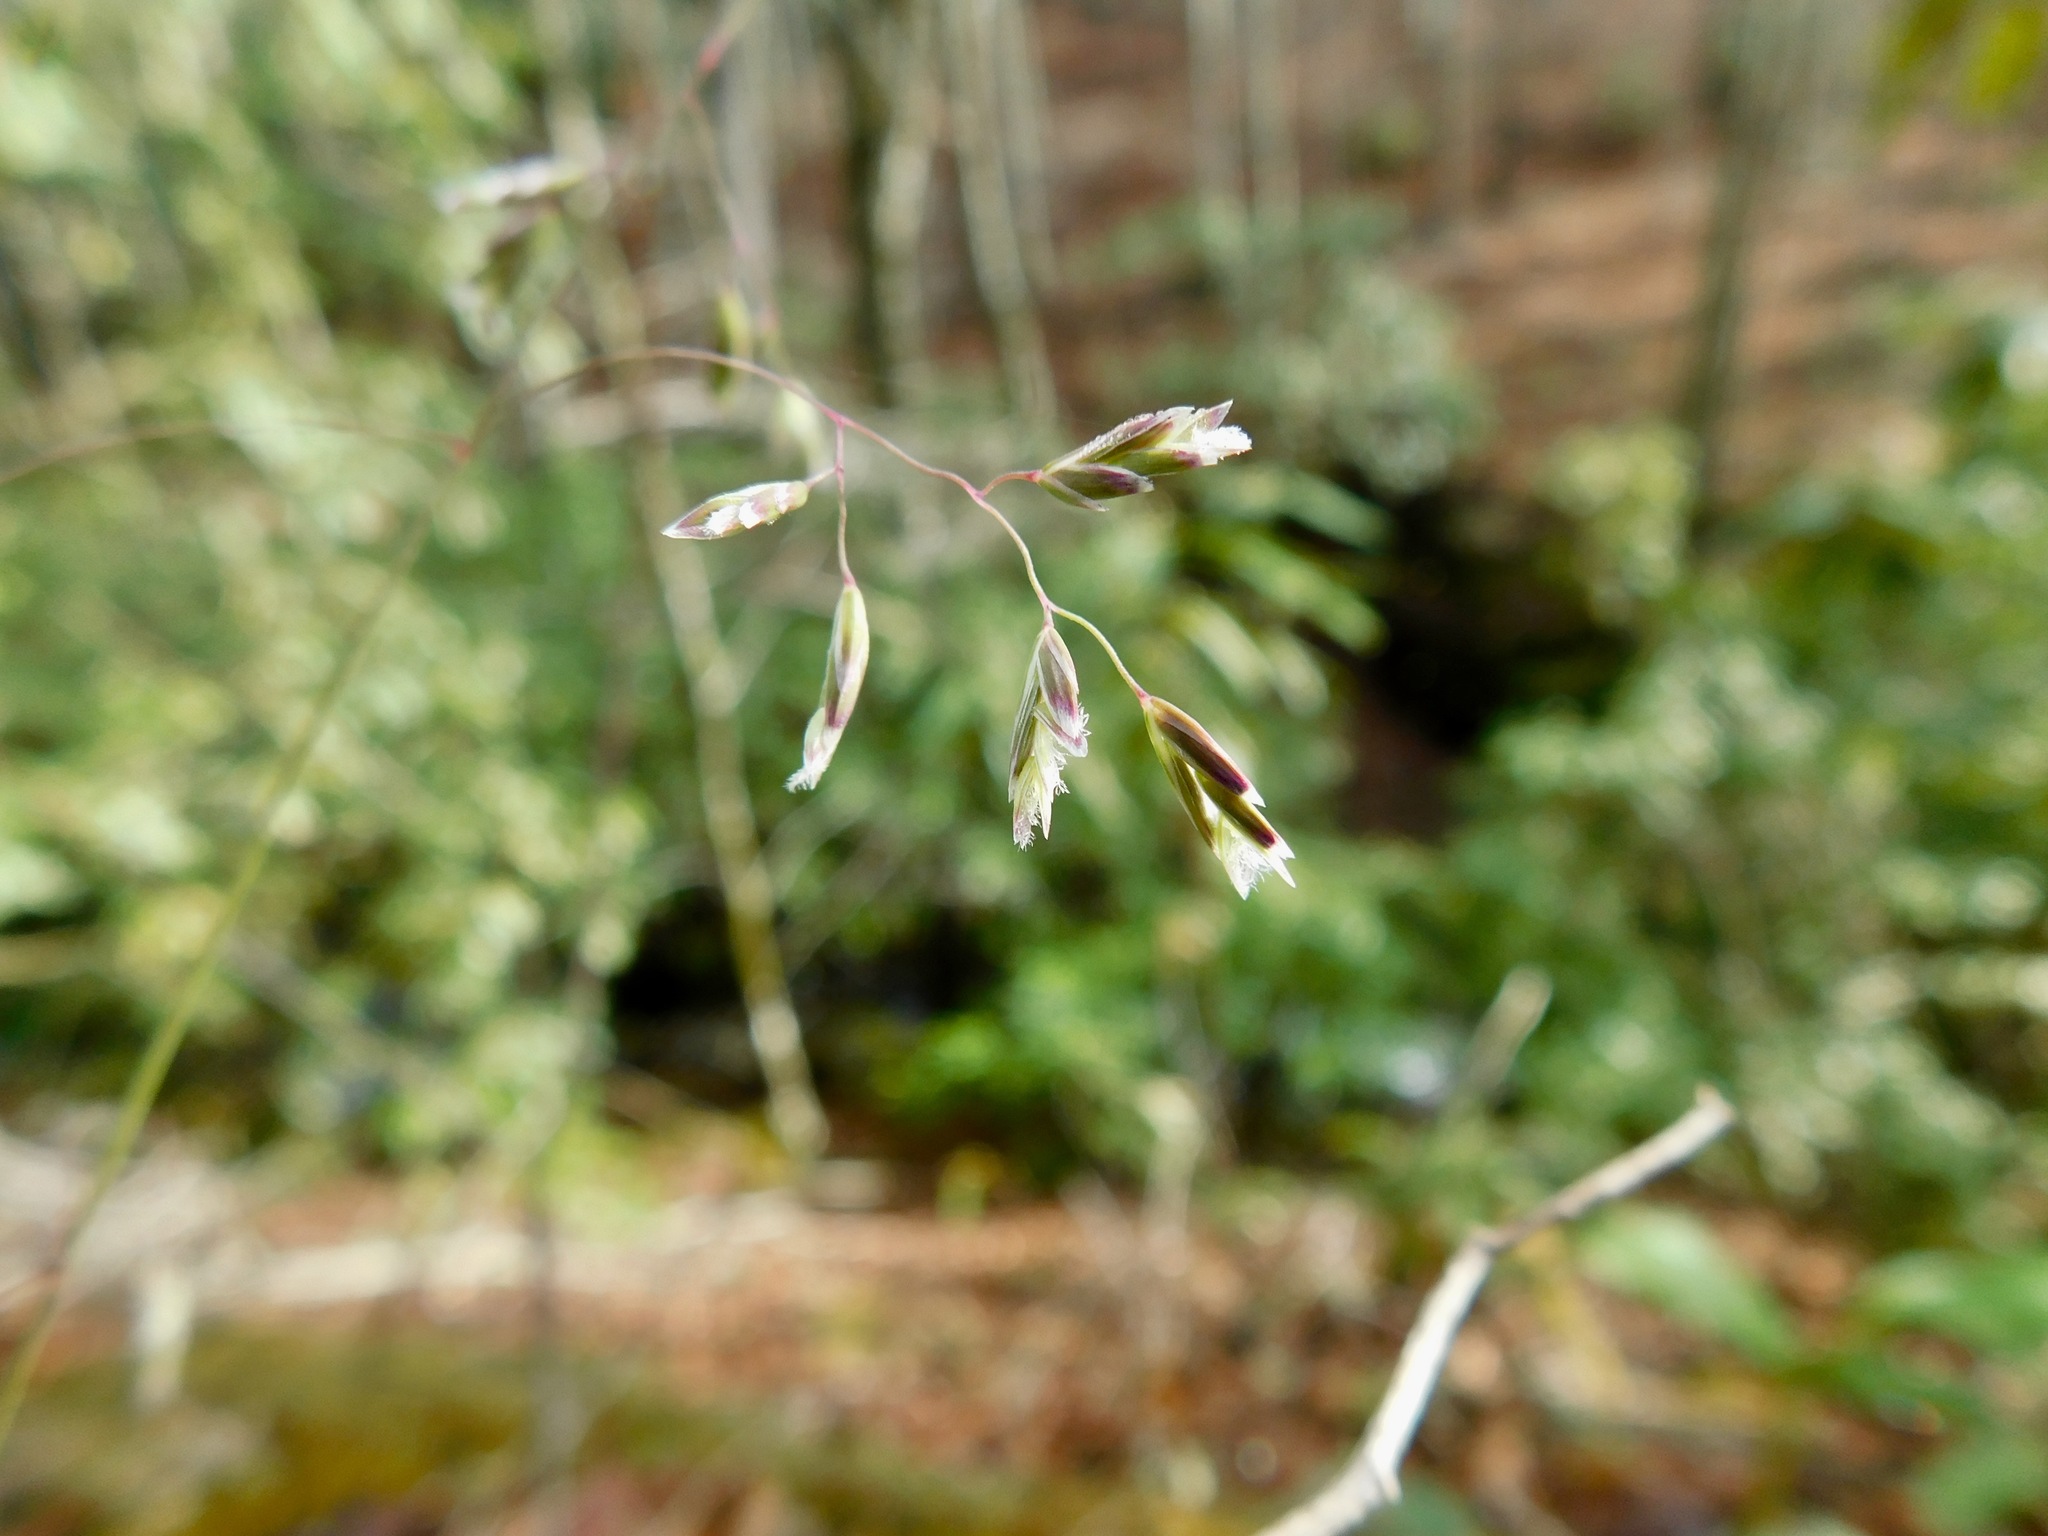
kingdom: Plantae
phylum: Tracheophyta
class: Liliopsida
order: Poales
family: Poaceae
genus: Poa
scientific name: Poa cuspidata
